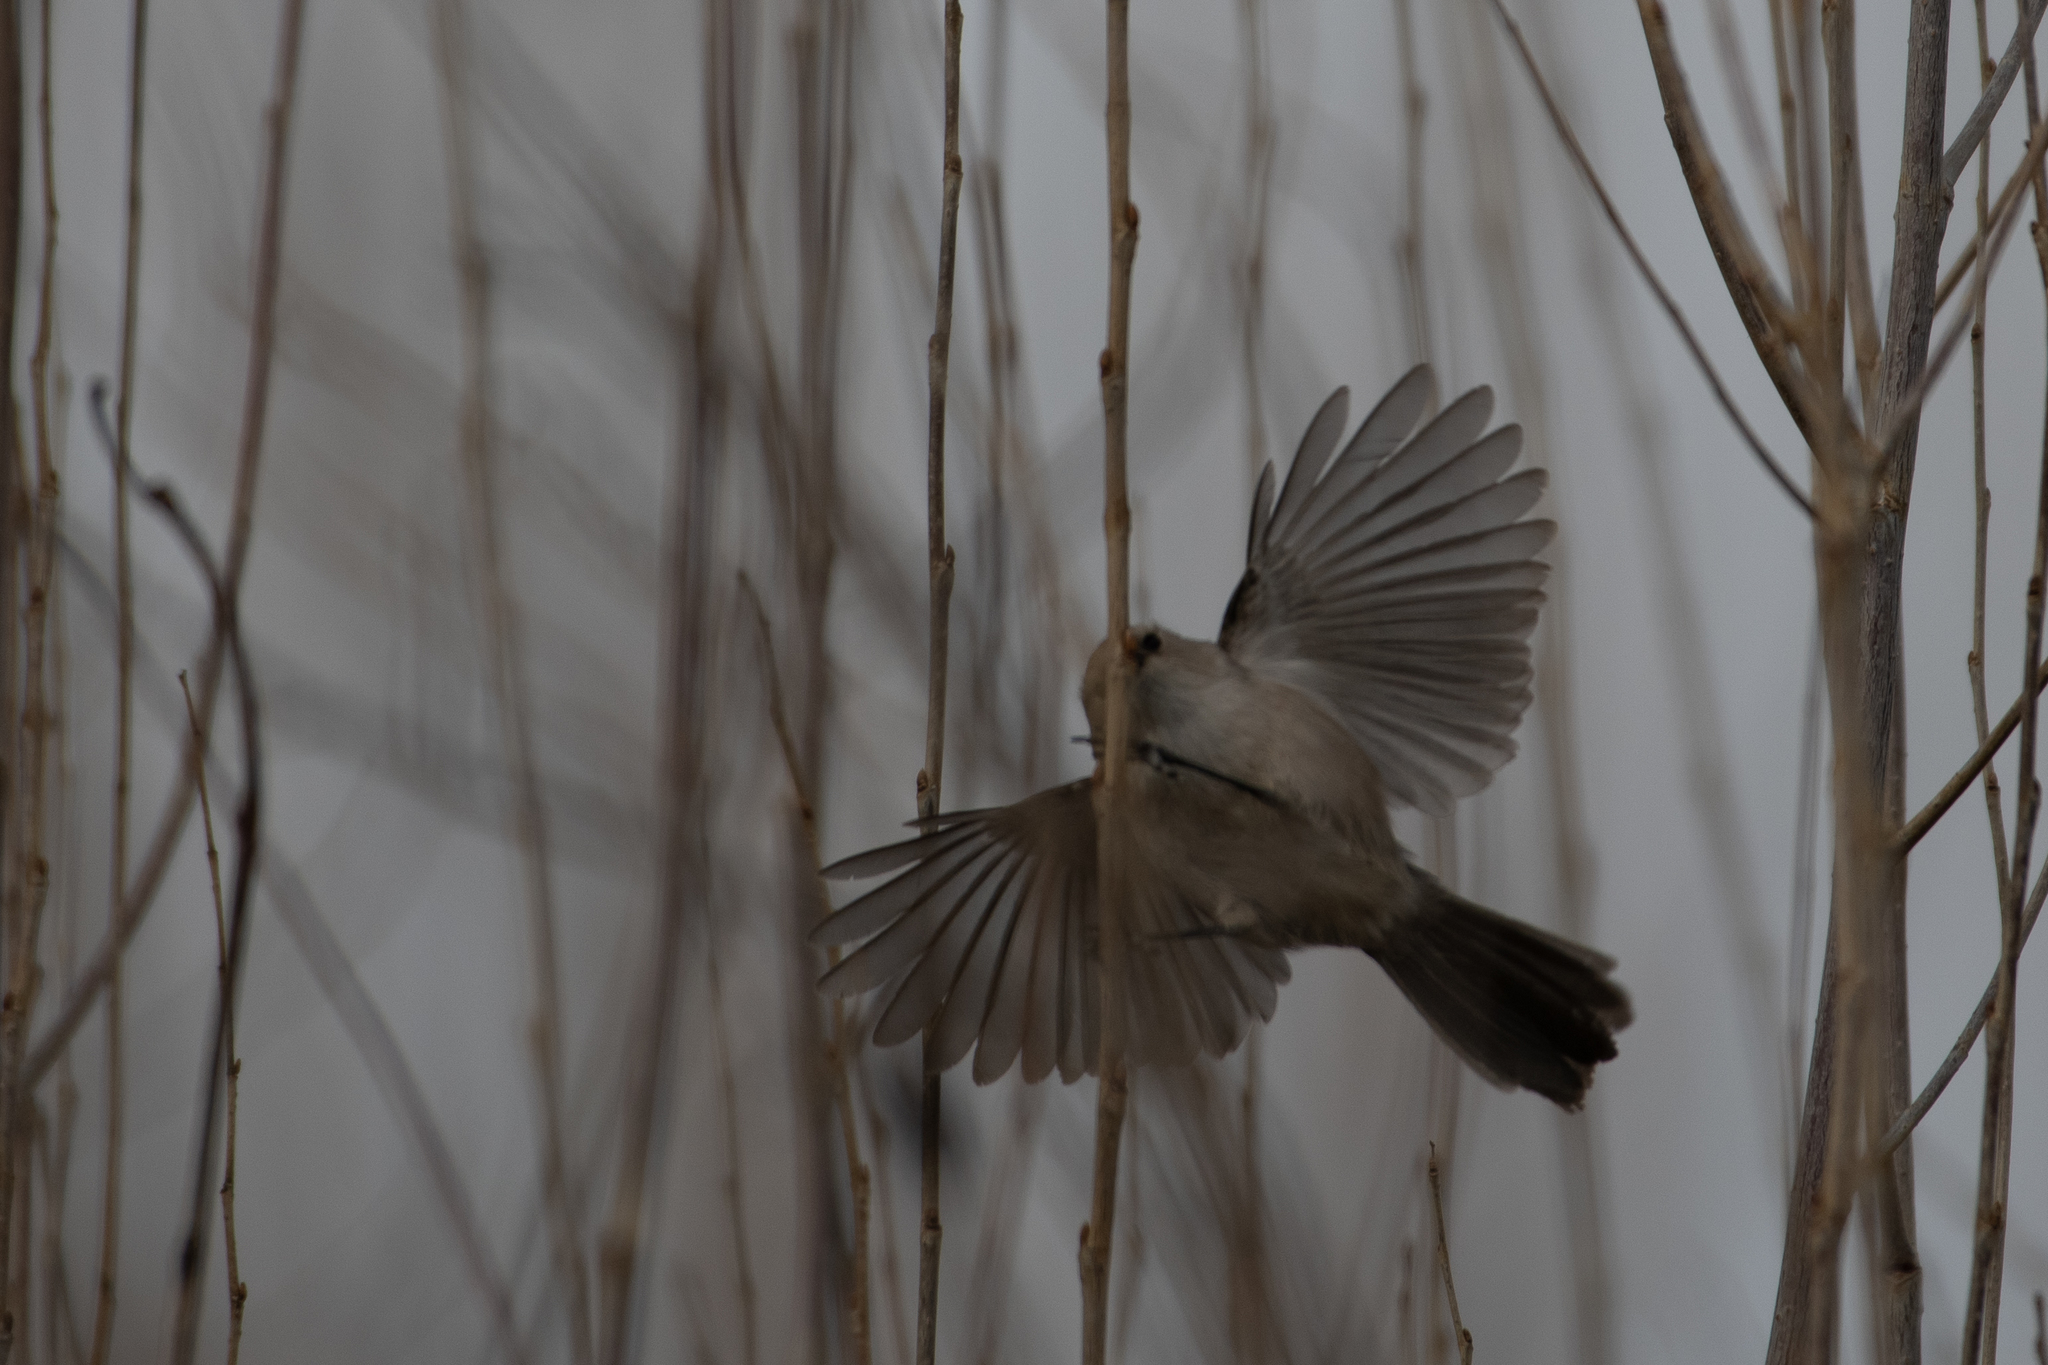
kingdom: Animalia
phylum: Chordata
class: Aves
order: Passeriformes
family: Aegithalidae
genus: Psaltriparus
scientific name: Psaltriparus minimus
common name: American bushtit
